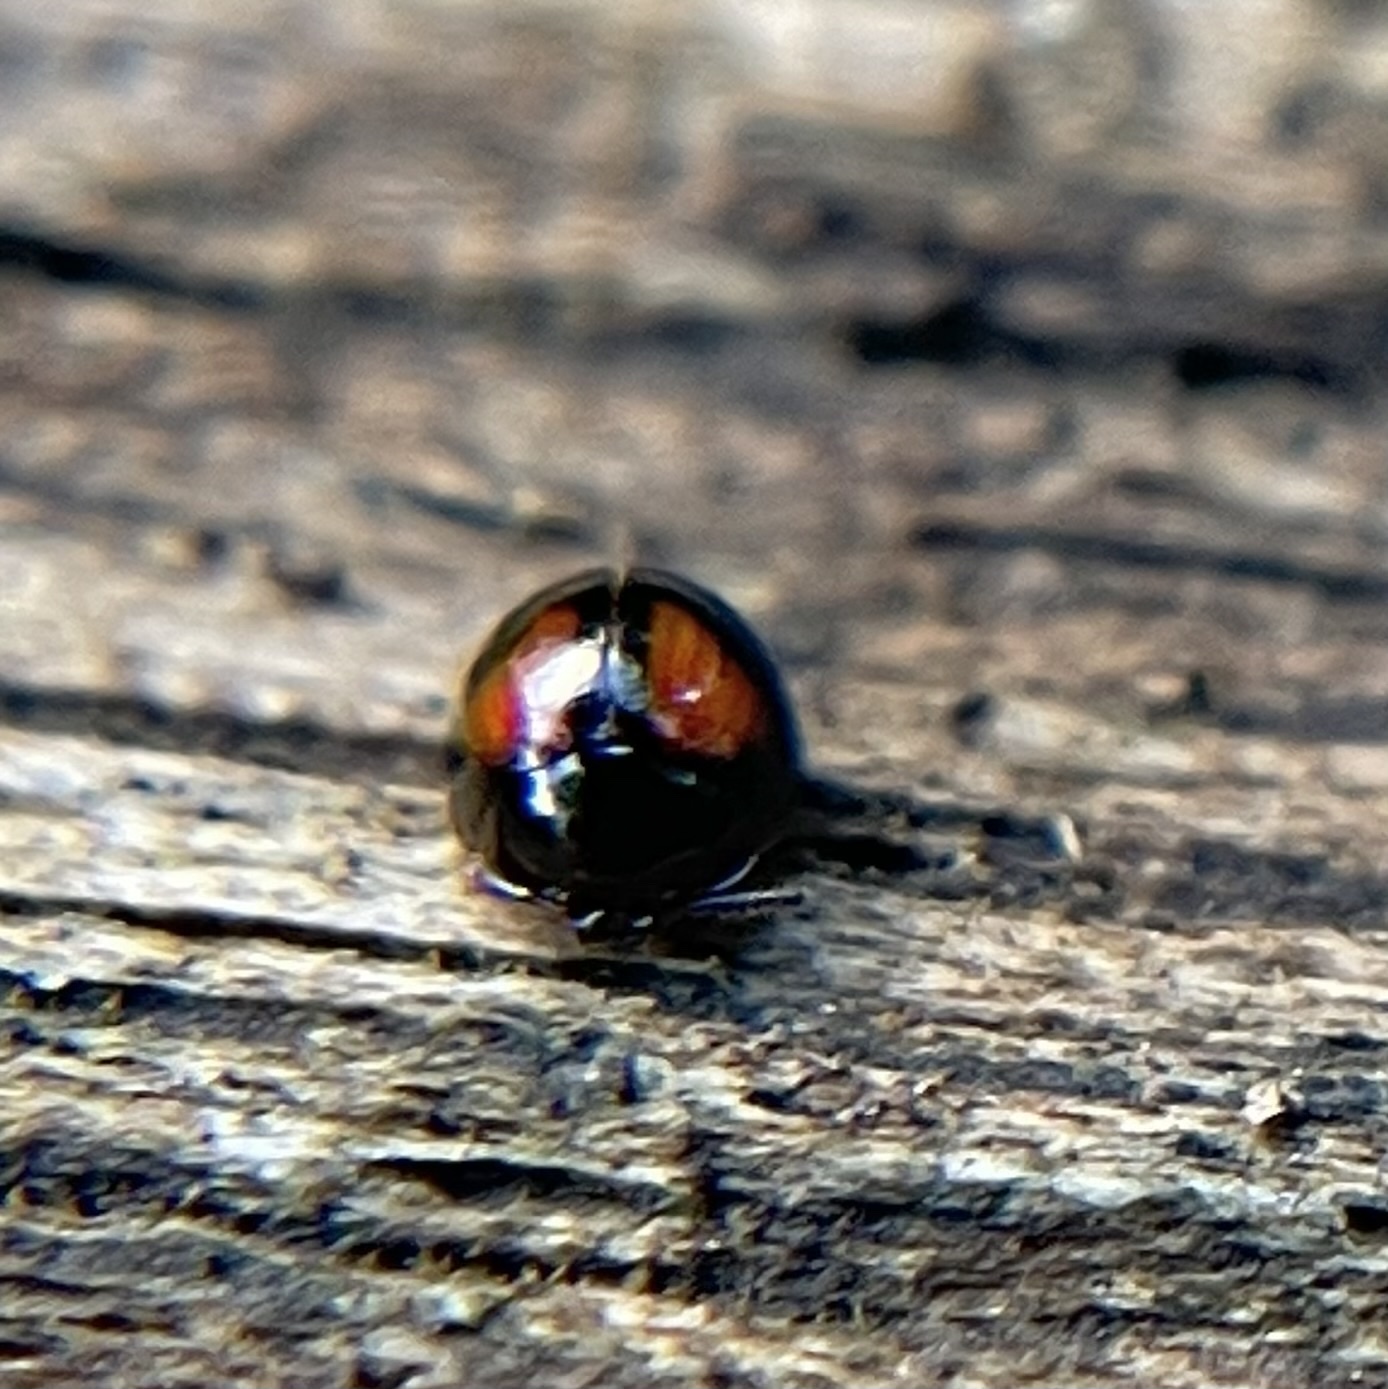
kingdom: Animalia
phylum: Arthropoda
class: Insecta
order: Coleoptera
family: Tenebrionidae
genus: Stethotrypes
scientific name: Stethotrypes
